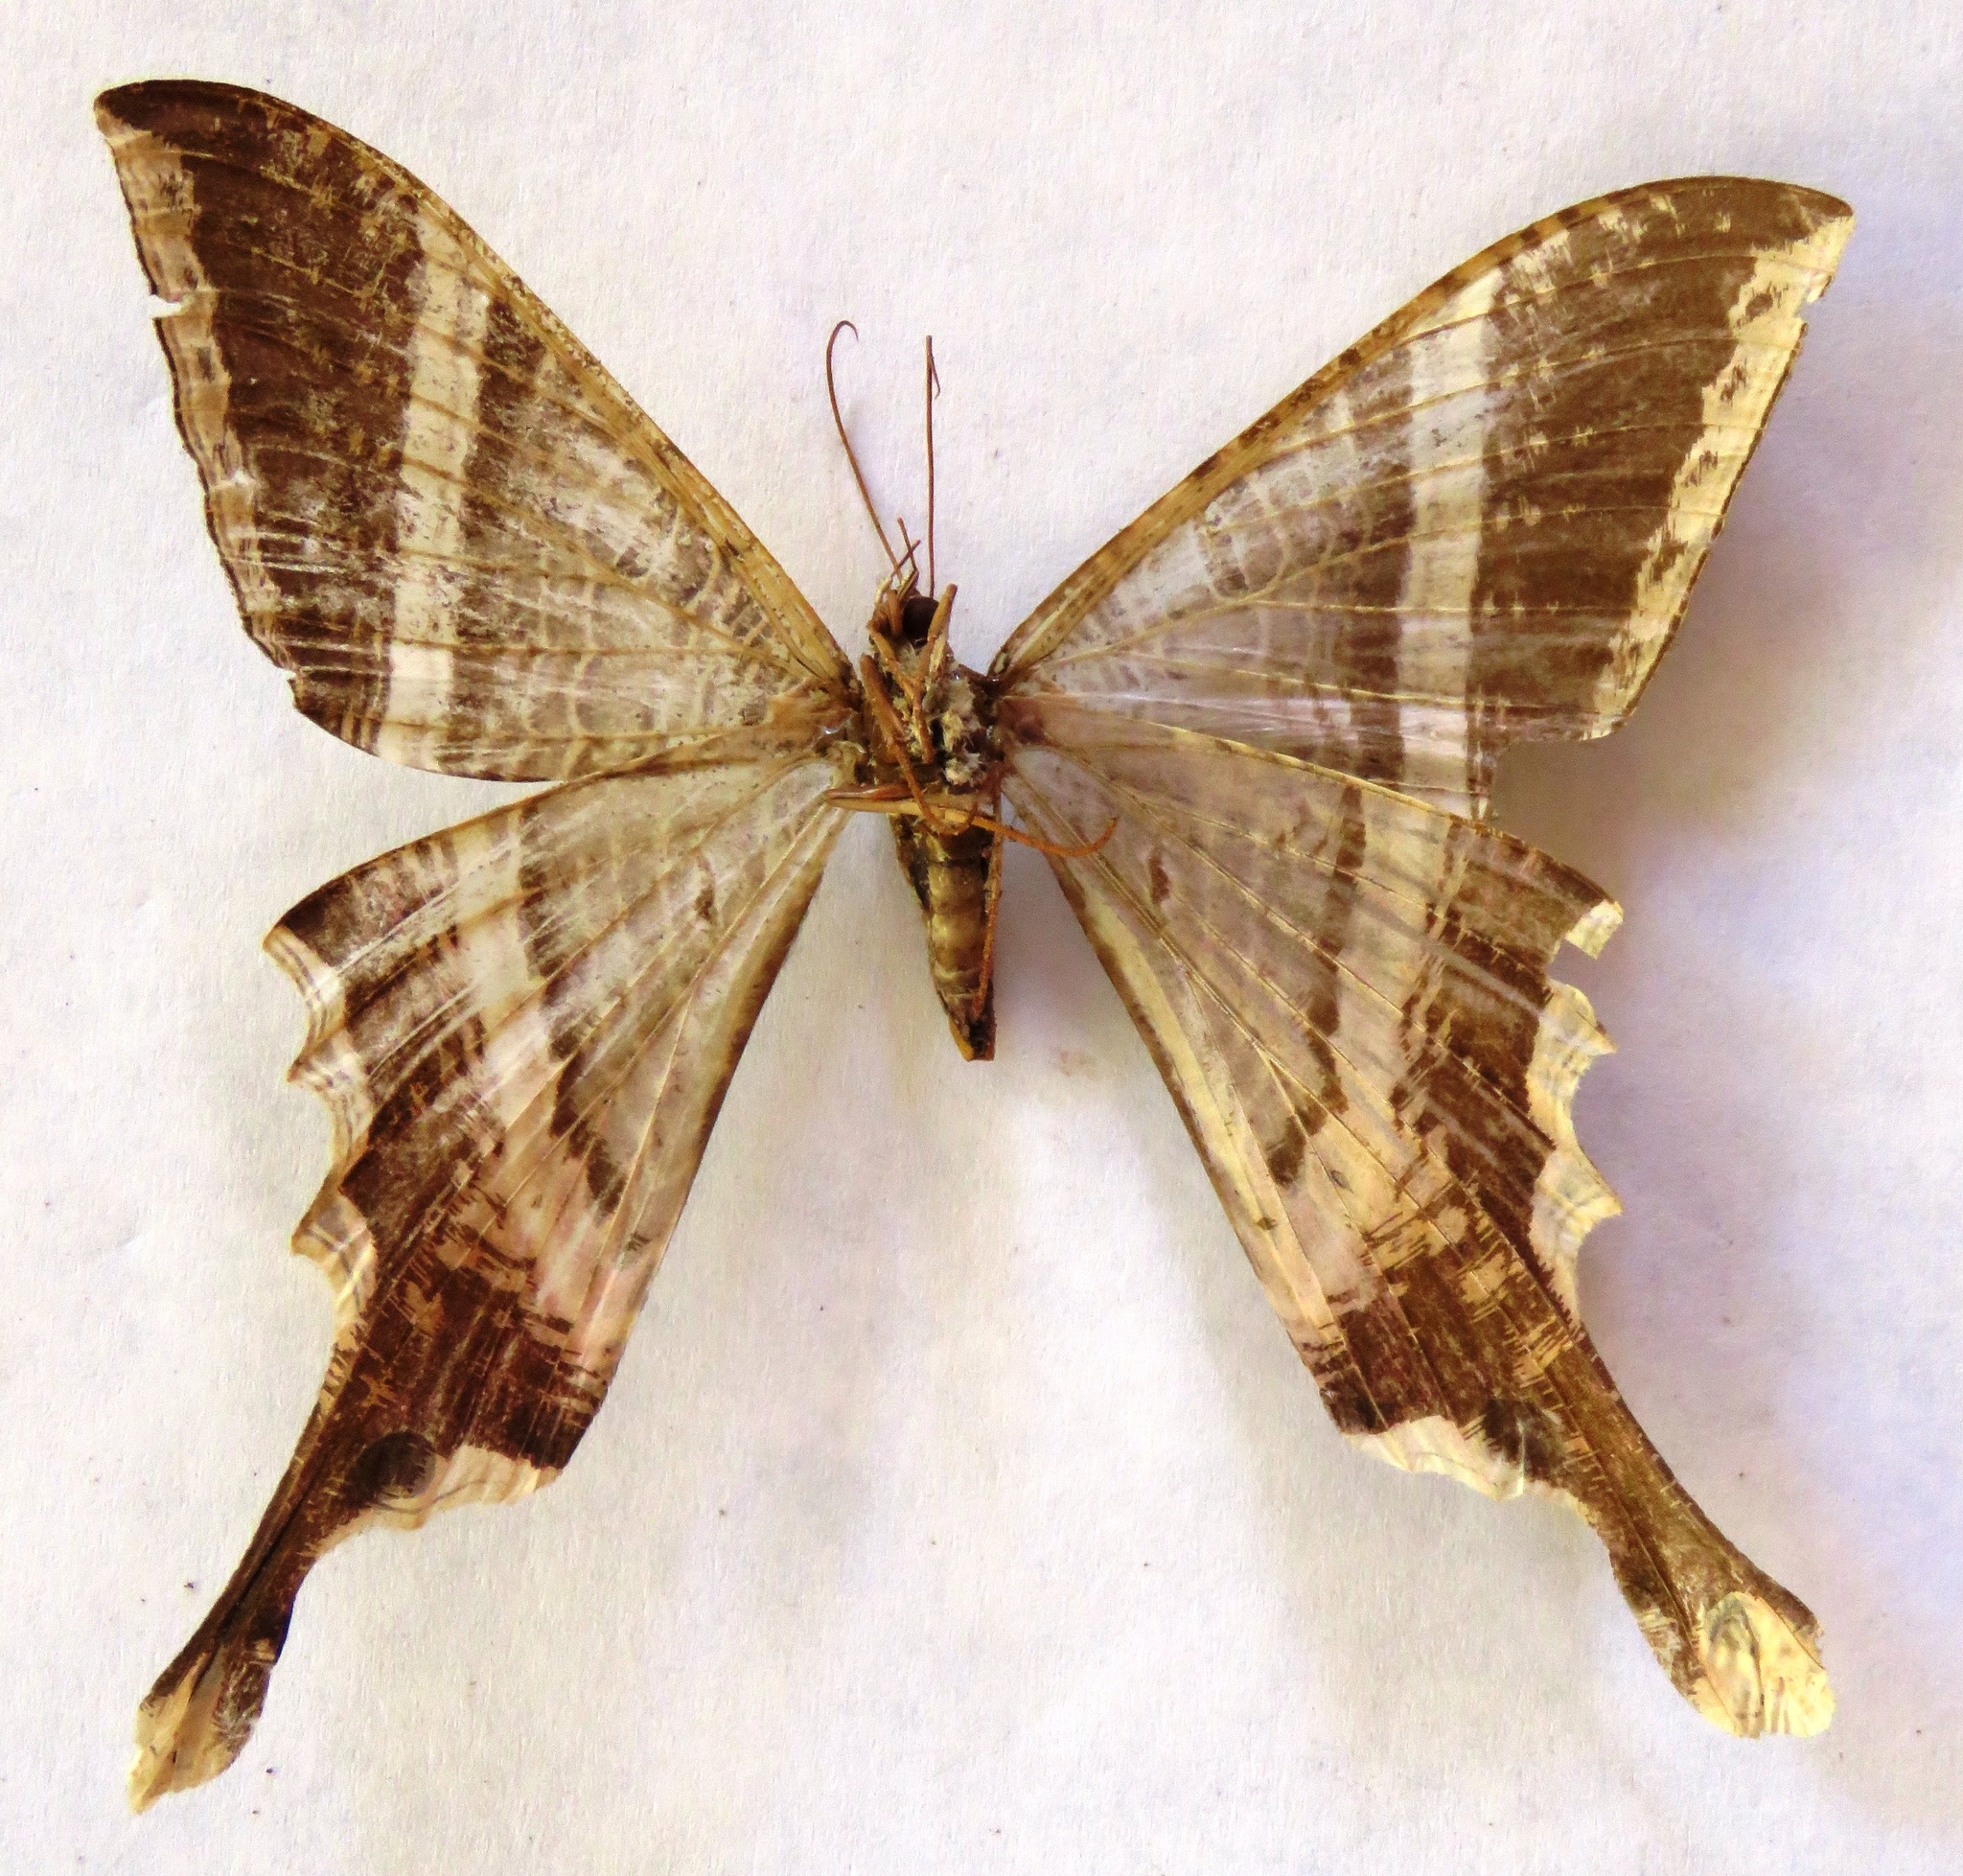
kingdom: Animalia
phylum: Arthropoda
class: Insecta
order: Lepidoptera
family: Sematuridae
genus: Nothus
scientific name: Nothus lunus
